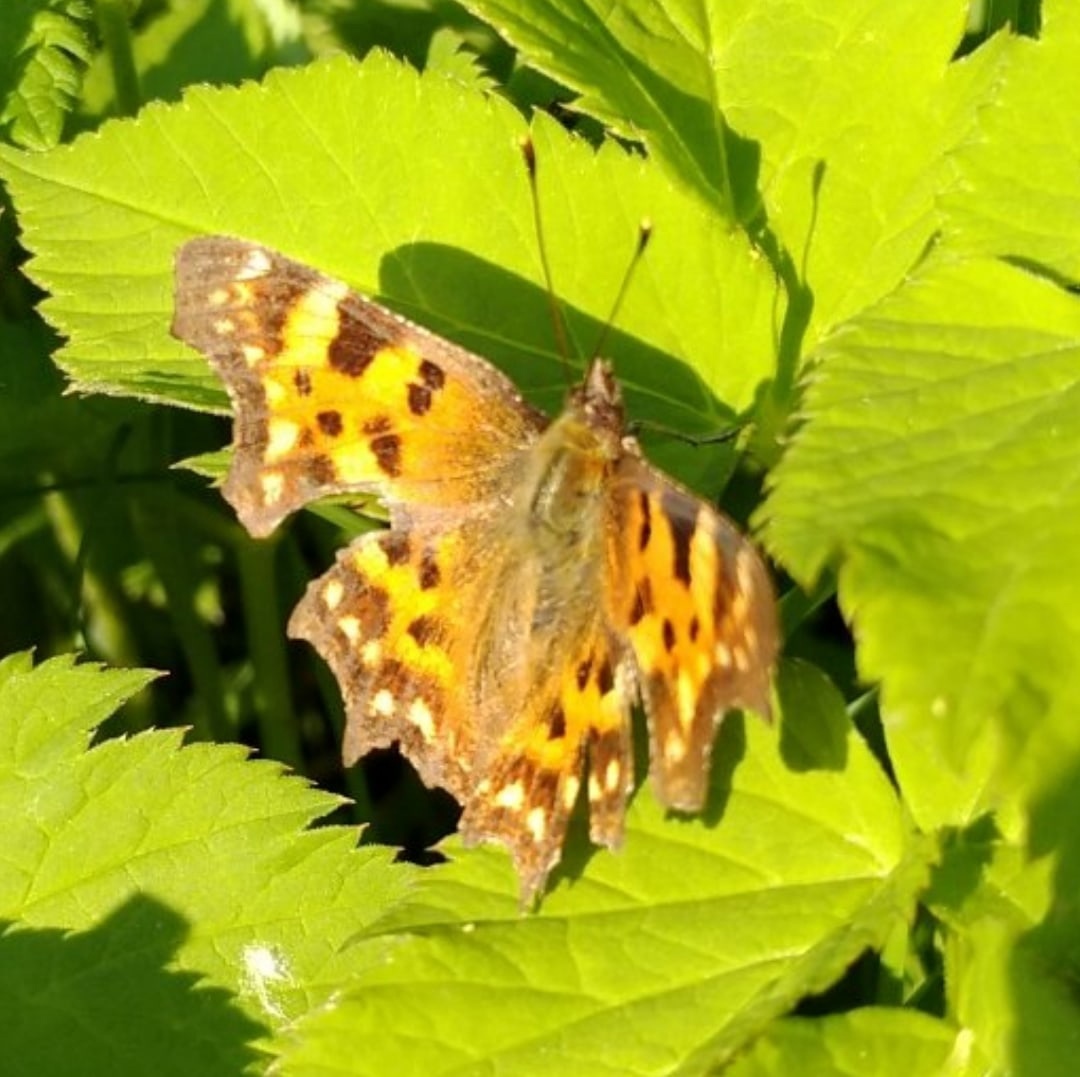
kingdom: Animalia
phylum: Arthropoda
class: Insecta
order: Lepidoptera
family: Nymphalidae
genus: Polygonia
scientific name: Polygonia c-album
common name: Comma
